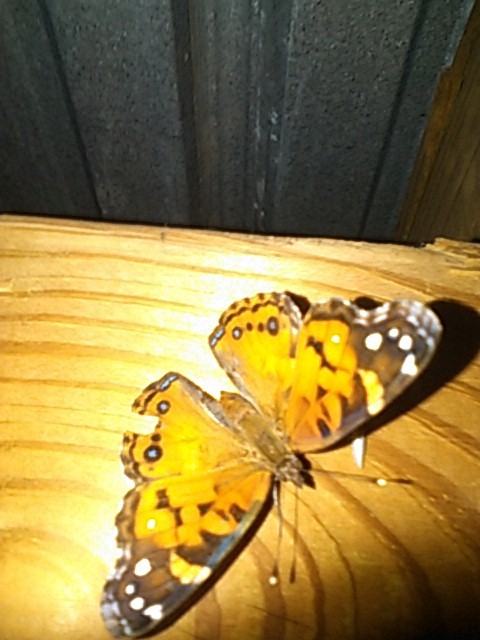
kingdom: Animalia
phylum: Arthropoda
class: Insecta
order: Lepidoptera
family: Nymphalidae
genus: Vanessa
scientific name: Vanessa virginiensis
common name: American lady
